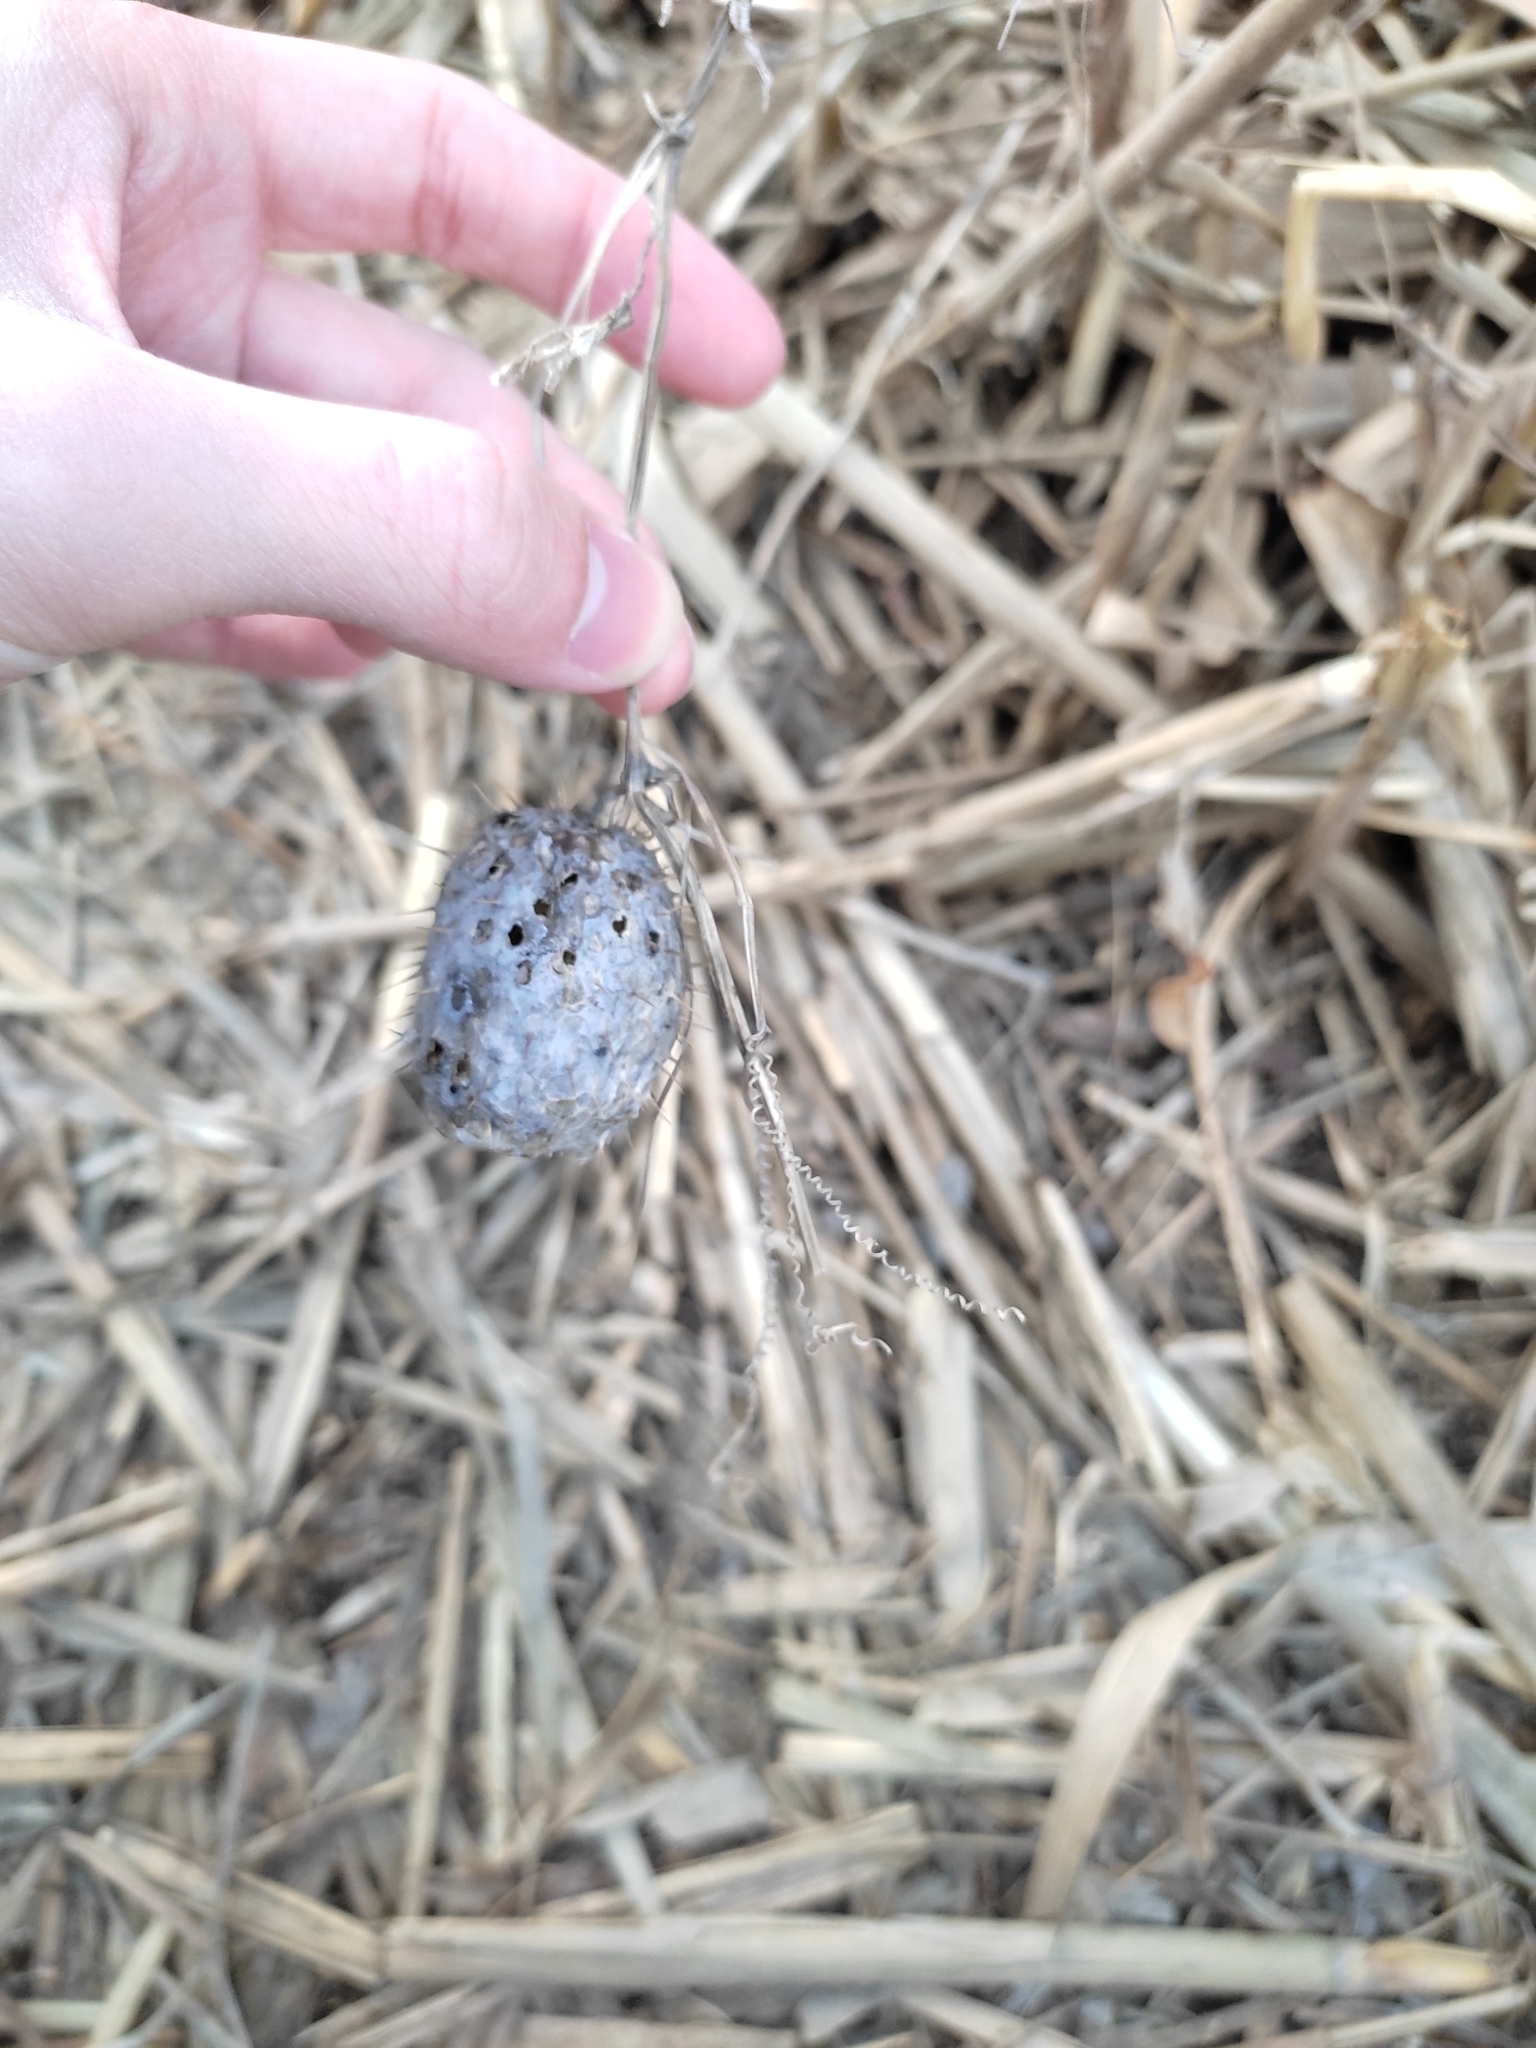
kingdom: Plantae
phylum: Tracheophyta
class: Magnoliopsida
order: Cucurbitales
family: Cucurbitaceae
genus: Echinocystis
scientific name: Echinocystis lobata
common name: Wild cucumber
